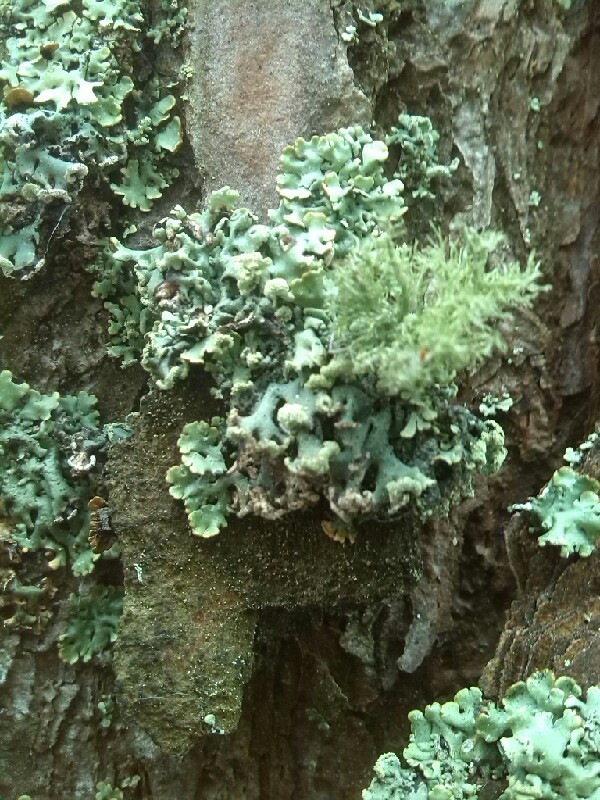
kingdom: Fungi
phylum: Ascomycota
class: Lecanoromycetes
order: Lecanorales
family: Parmeliaceae
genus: Hypogymnia
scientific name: Hypogymnia physodes
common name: Dark crottle
